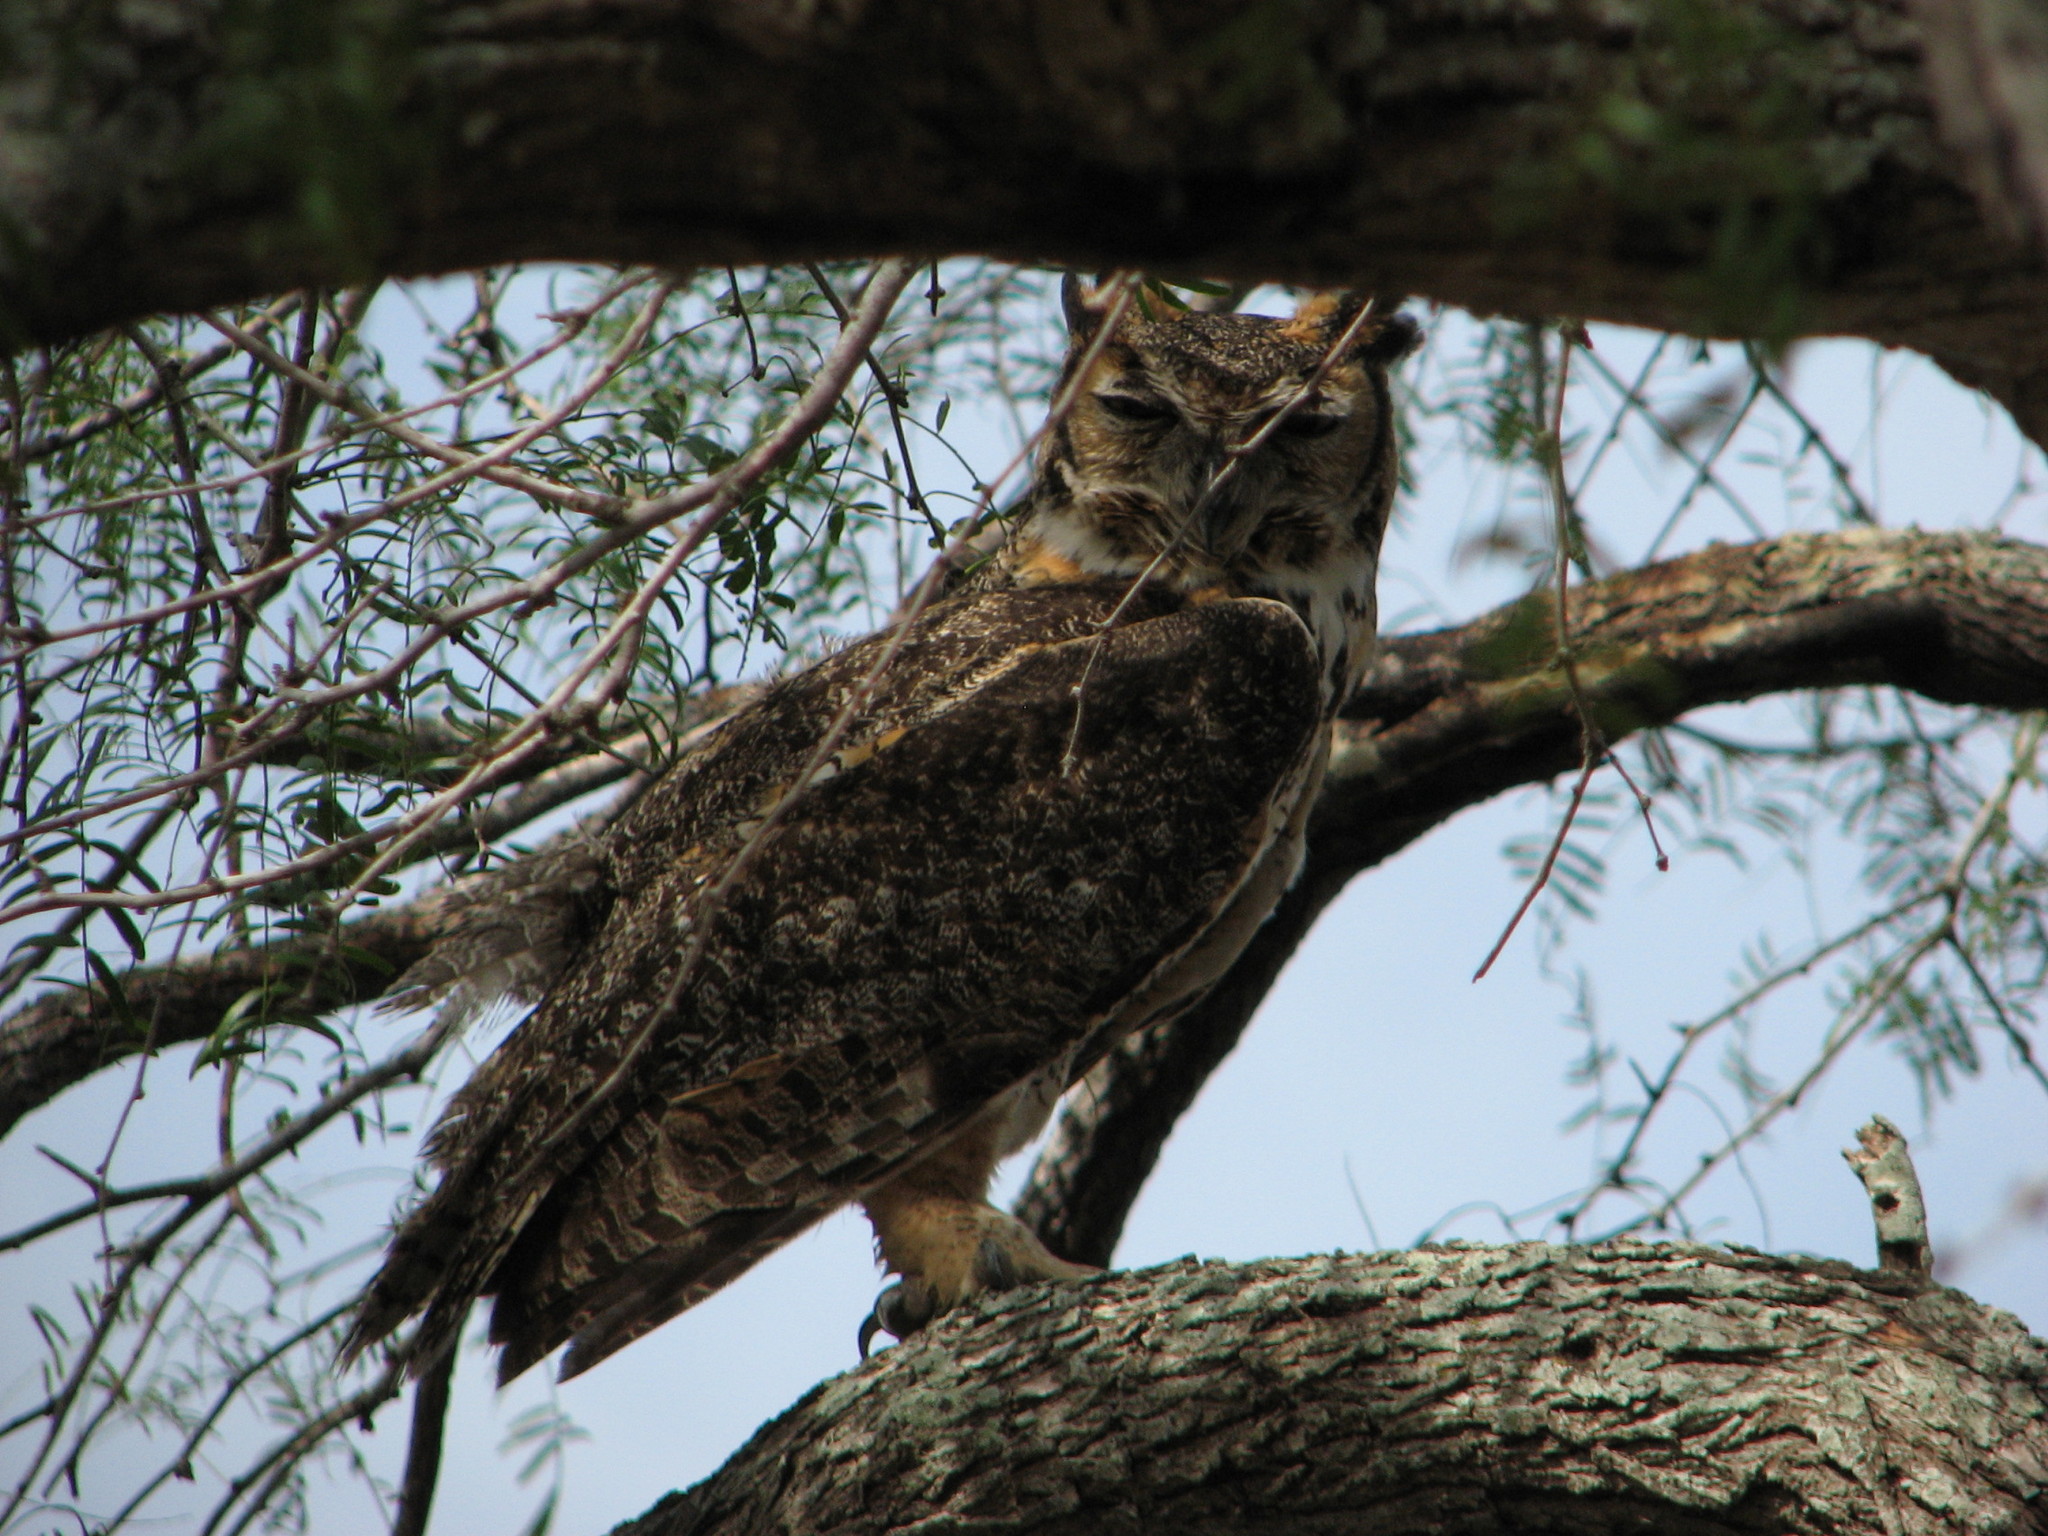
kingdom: Animalia
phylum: Chordata
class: Aves
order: Strigiformes
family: Strigidae
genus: Bubo
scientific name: Bubo virginianus
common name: Great horned owl
